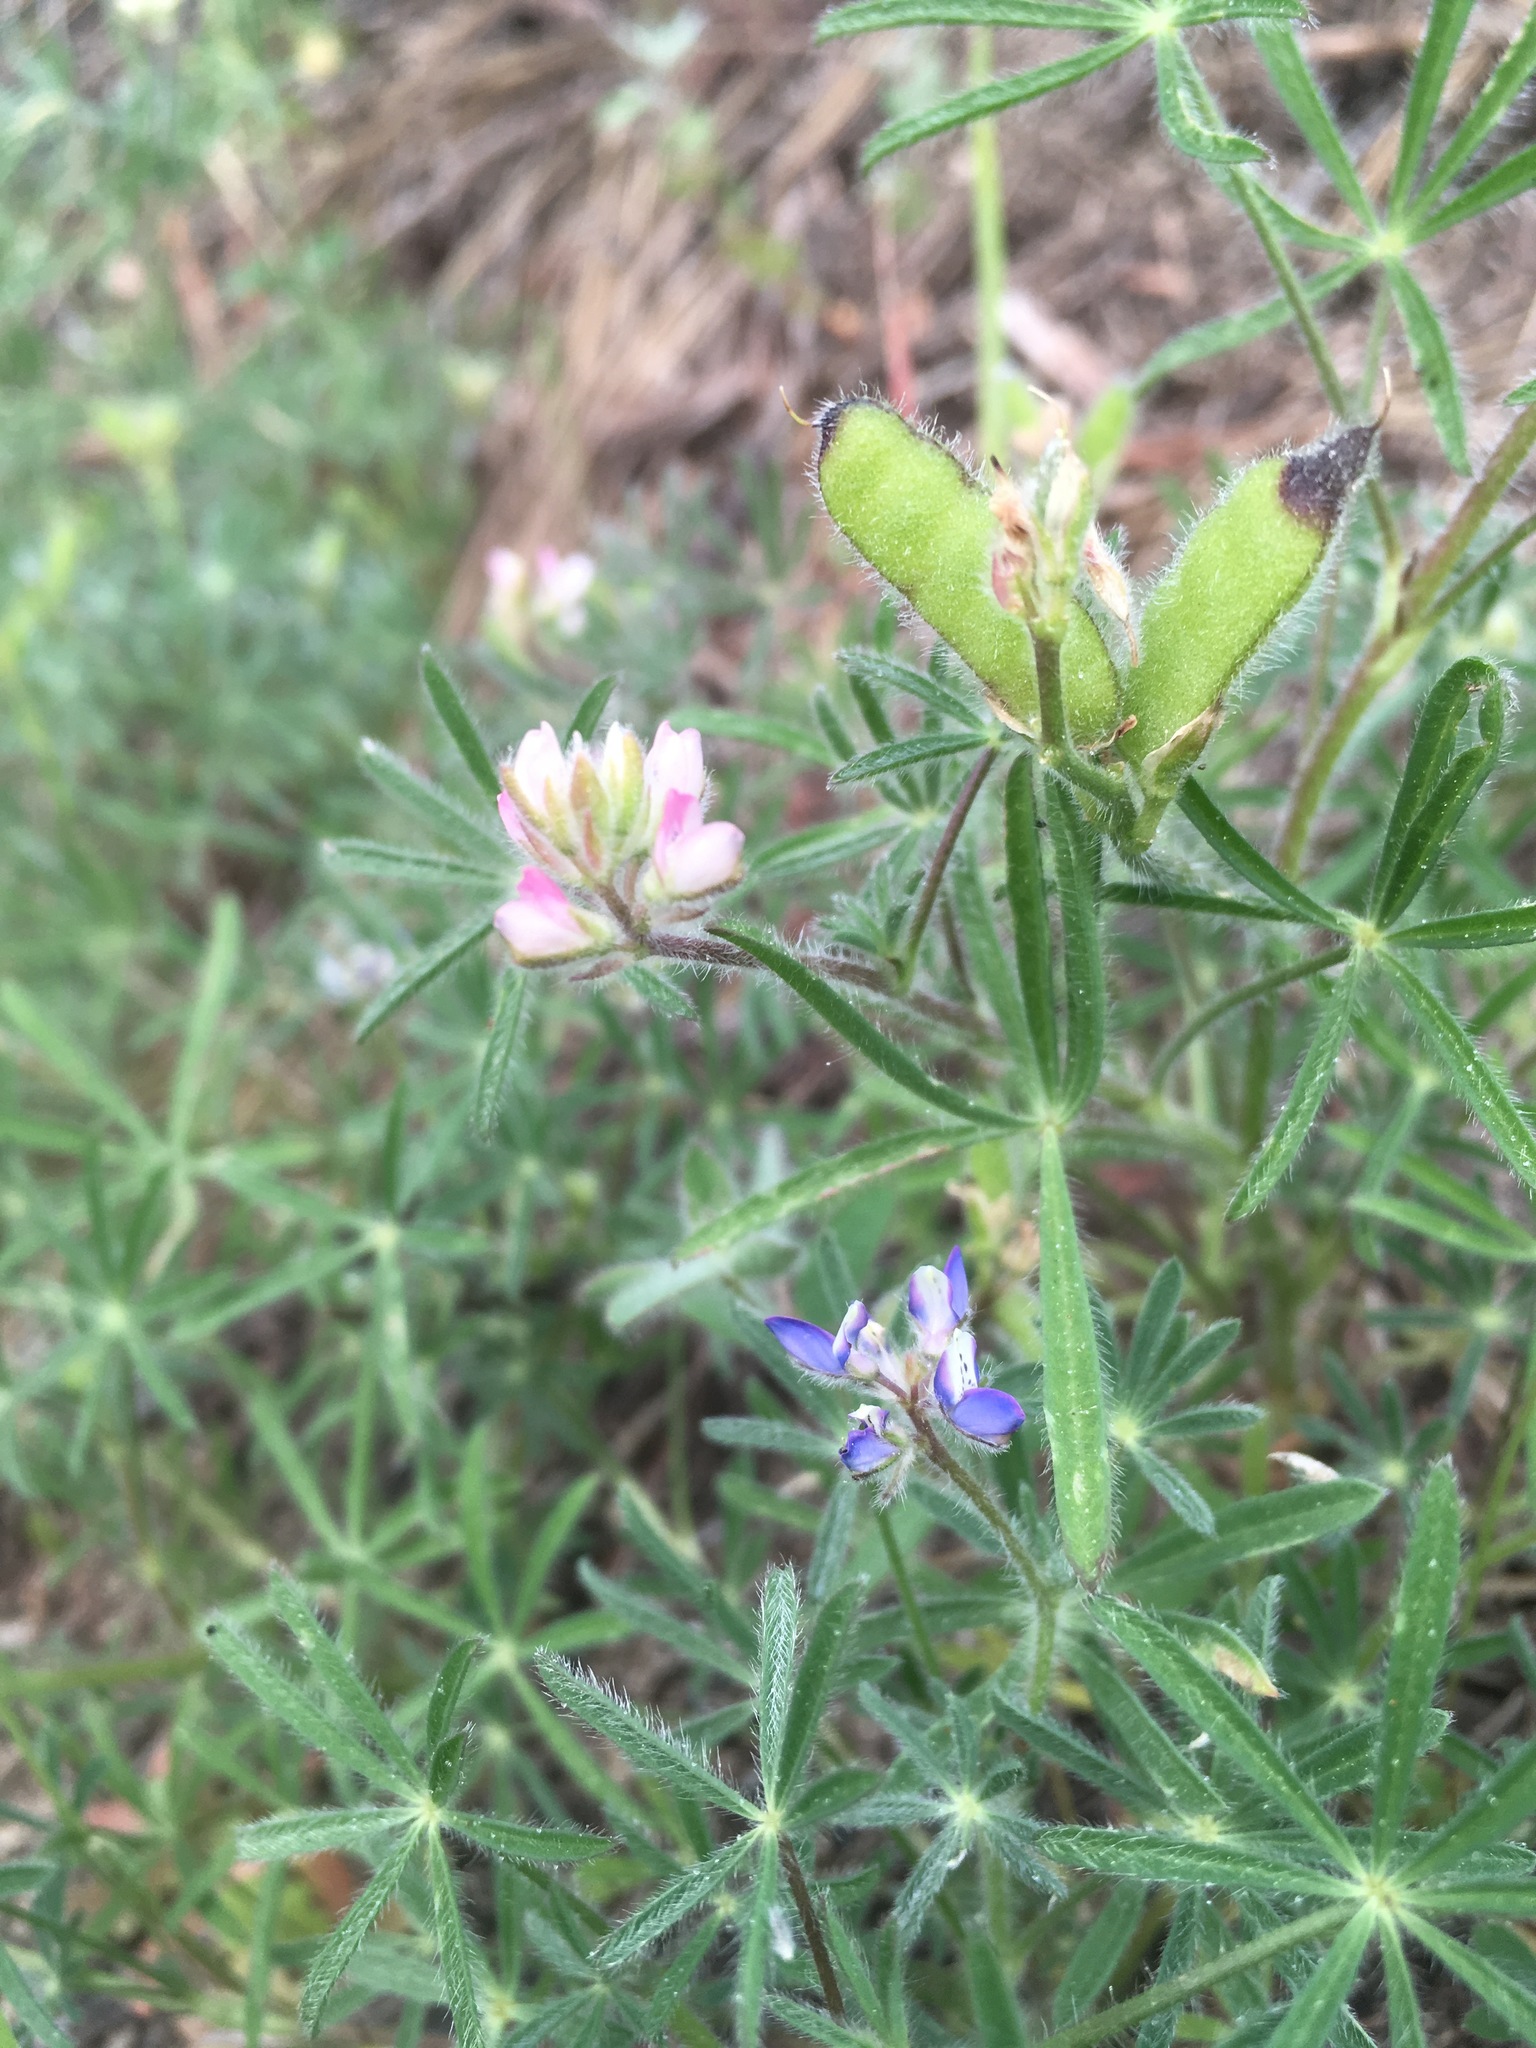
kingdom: Plantae
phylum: Tracheophyta
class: Magnoliopsida
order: Fabales
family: Fabaceae
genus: Lupinus
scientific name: Lupinus bicolor
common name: Miniature lupine
